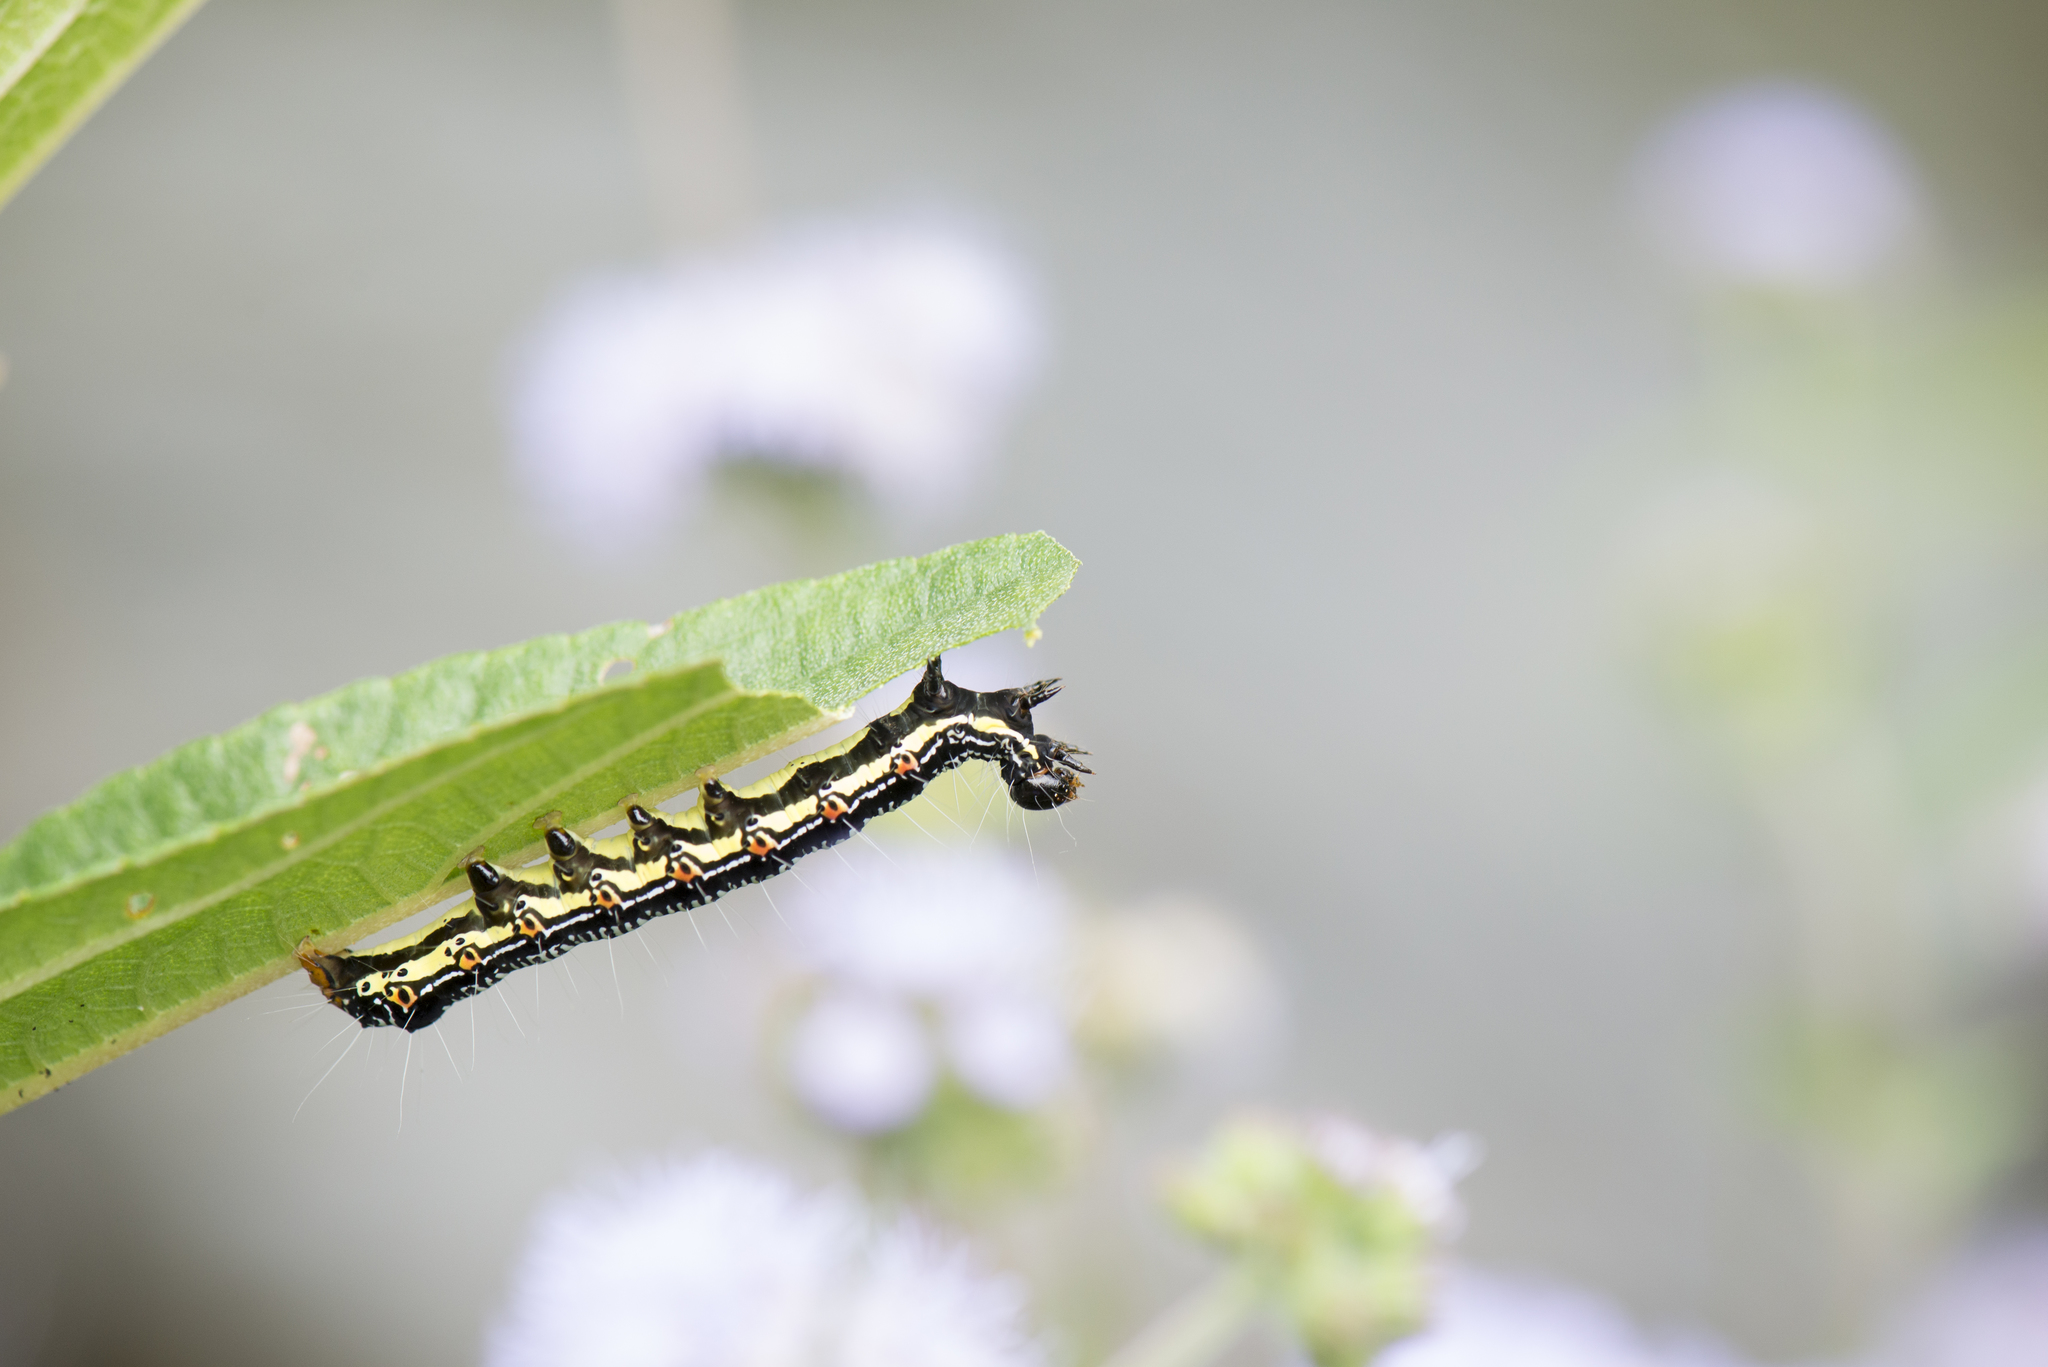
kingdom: Animalia
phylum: Arthropoda
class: Insecta
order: Lepidoptera
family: Erebidae
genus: Arcte
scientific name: Arcte coerula
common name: Ramie moth
